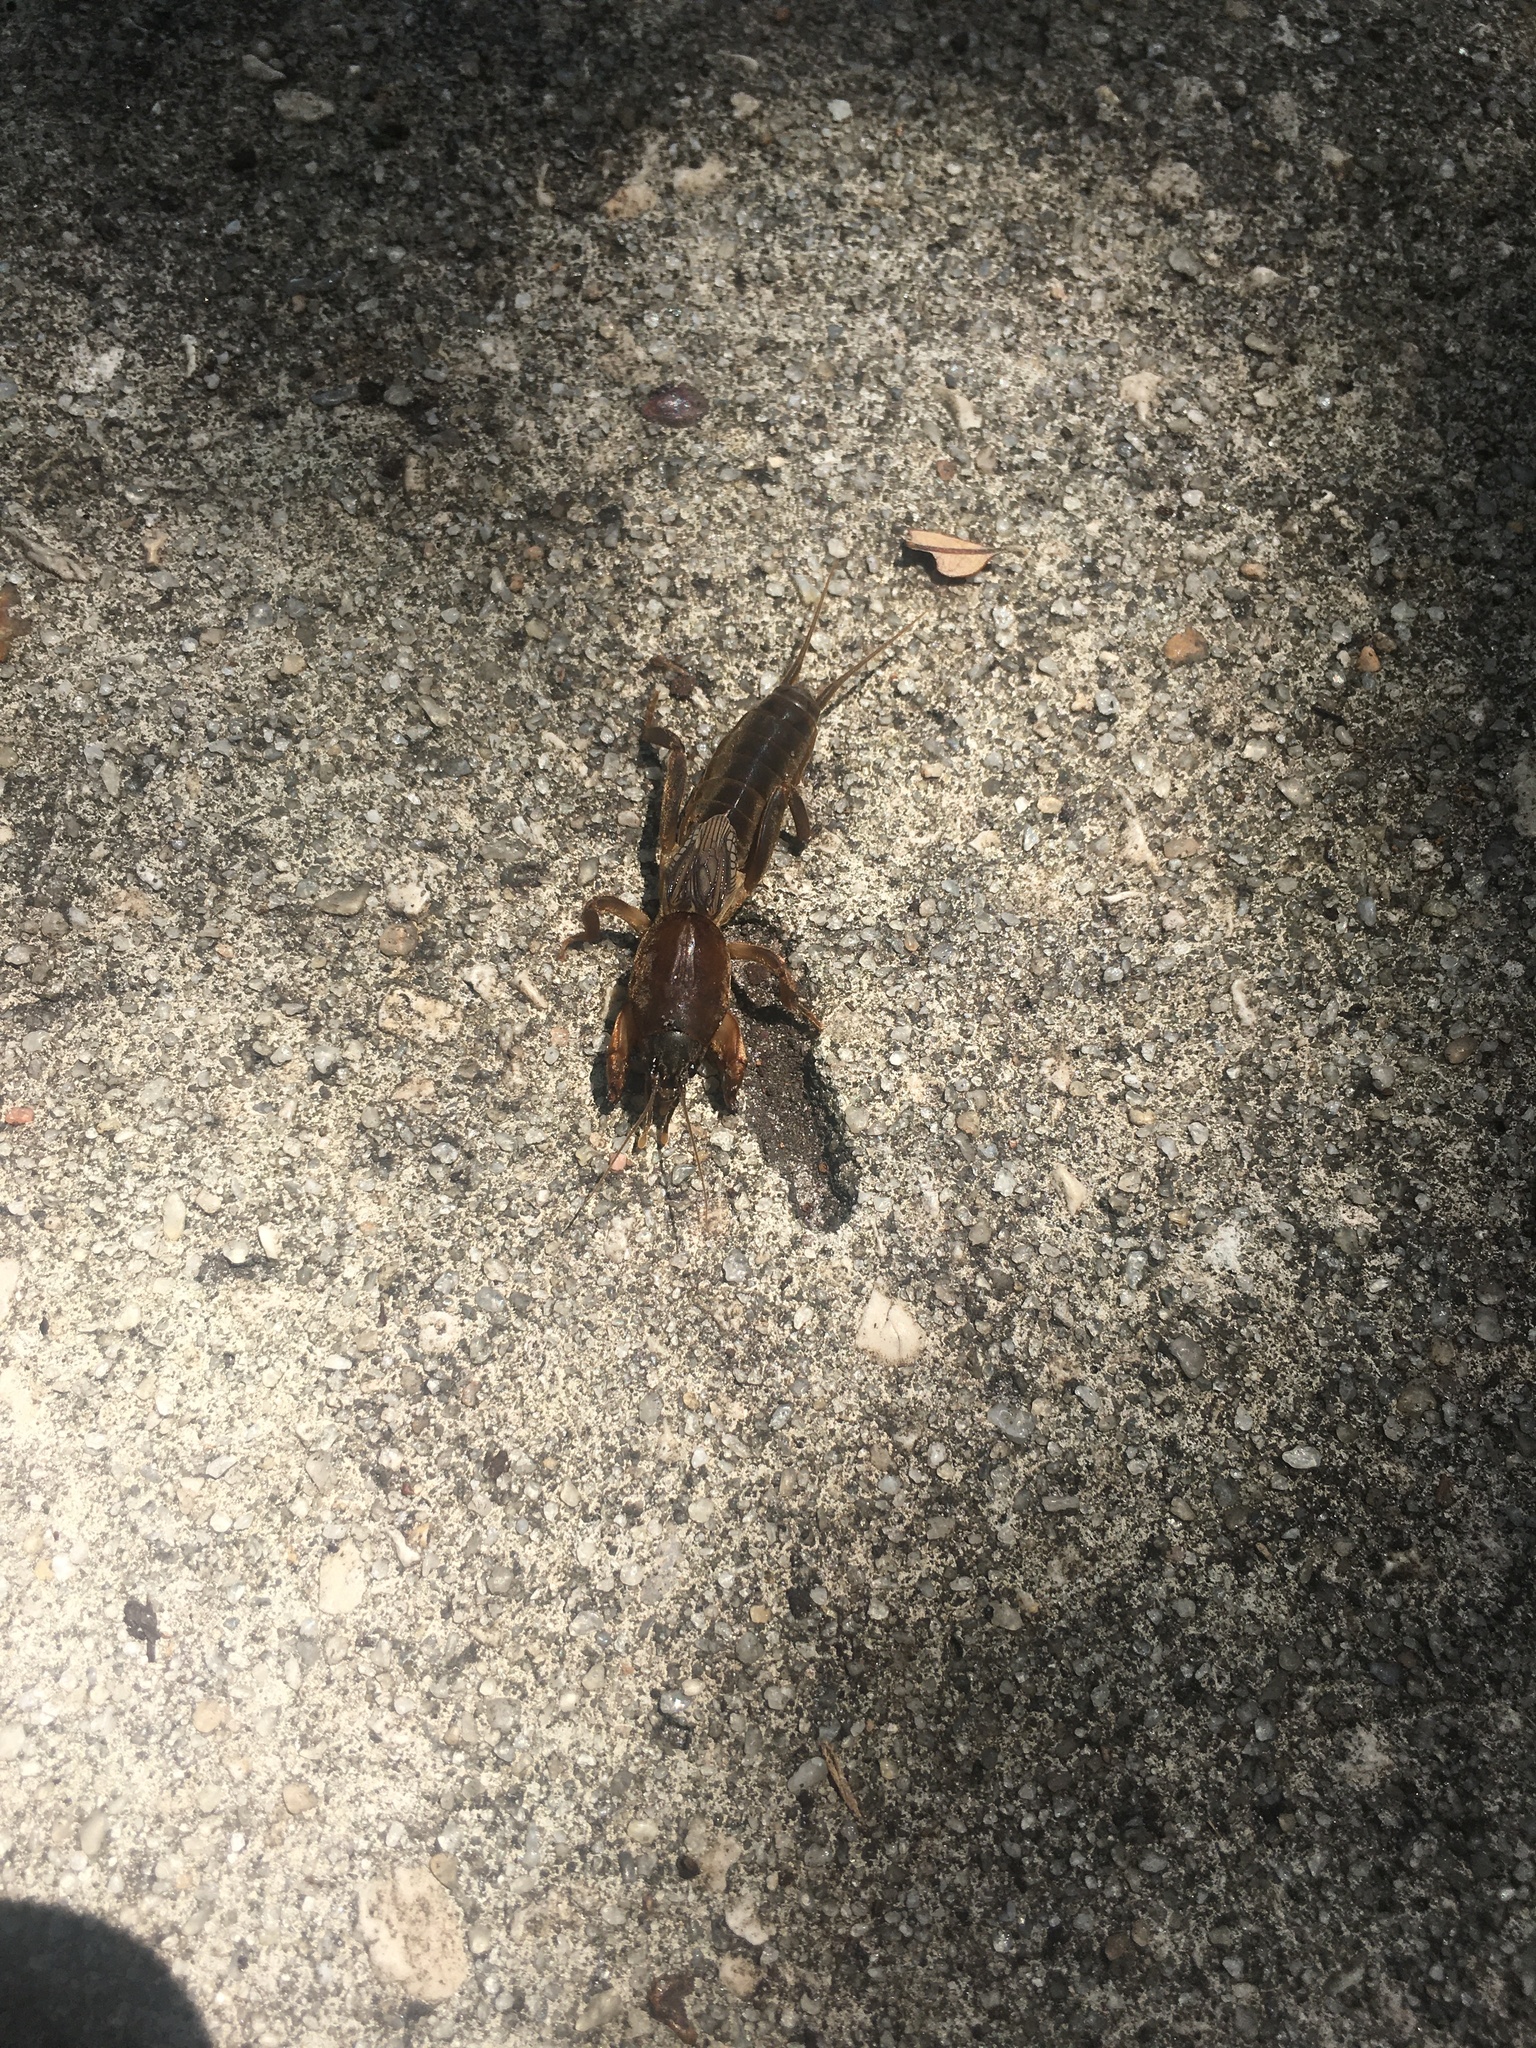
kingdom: Animalia
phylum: Arthropoda
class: Insecta
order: Orthoptera
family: Gryllotalpidae
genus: Neocurtilla
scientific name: Neocurtilla hexadactyla
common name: Northern mole cricket
